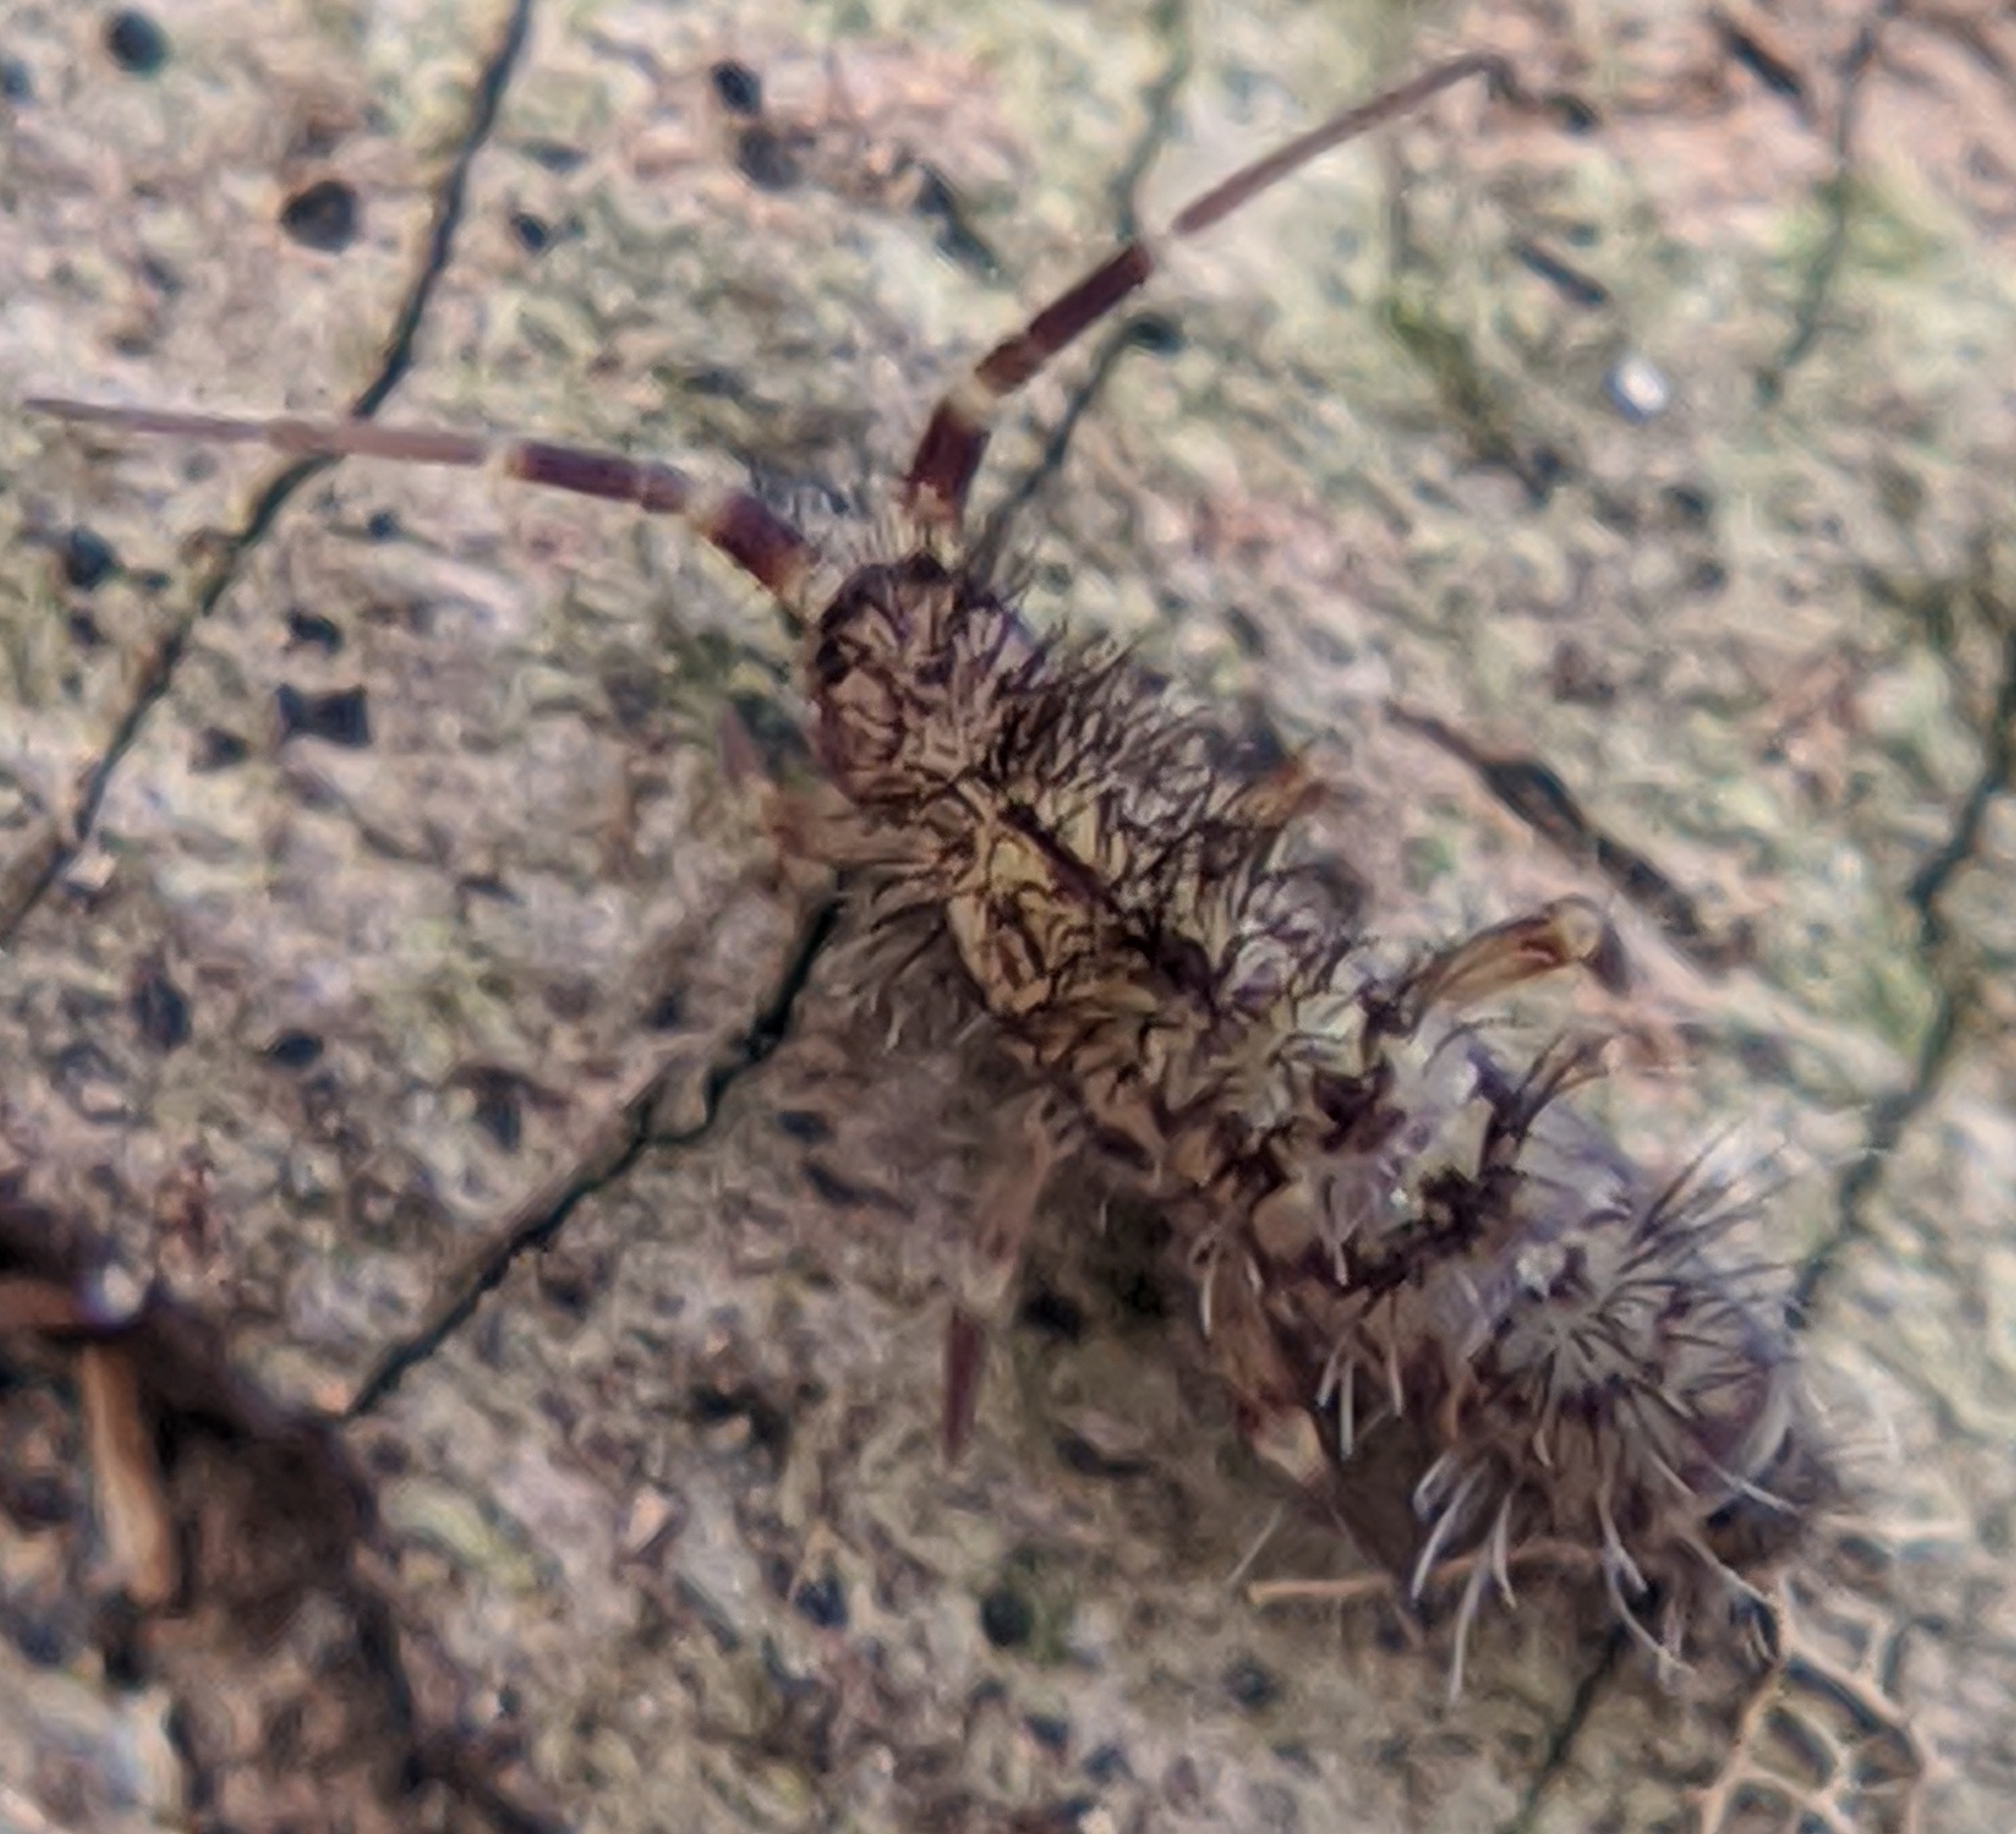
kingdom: Animalia
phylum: Arthropoda
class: Collembola
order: Entomobryomorpha
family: Orchesellidae
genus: Orchesella
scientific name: Orchesella villosa
